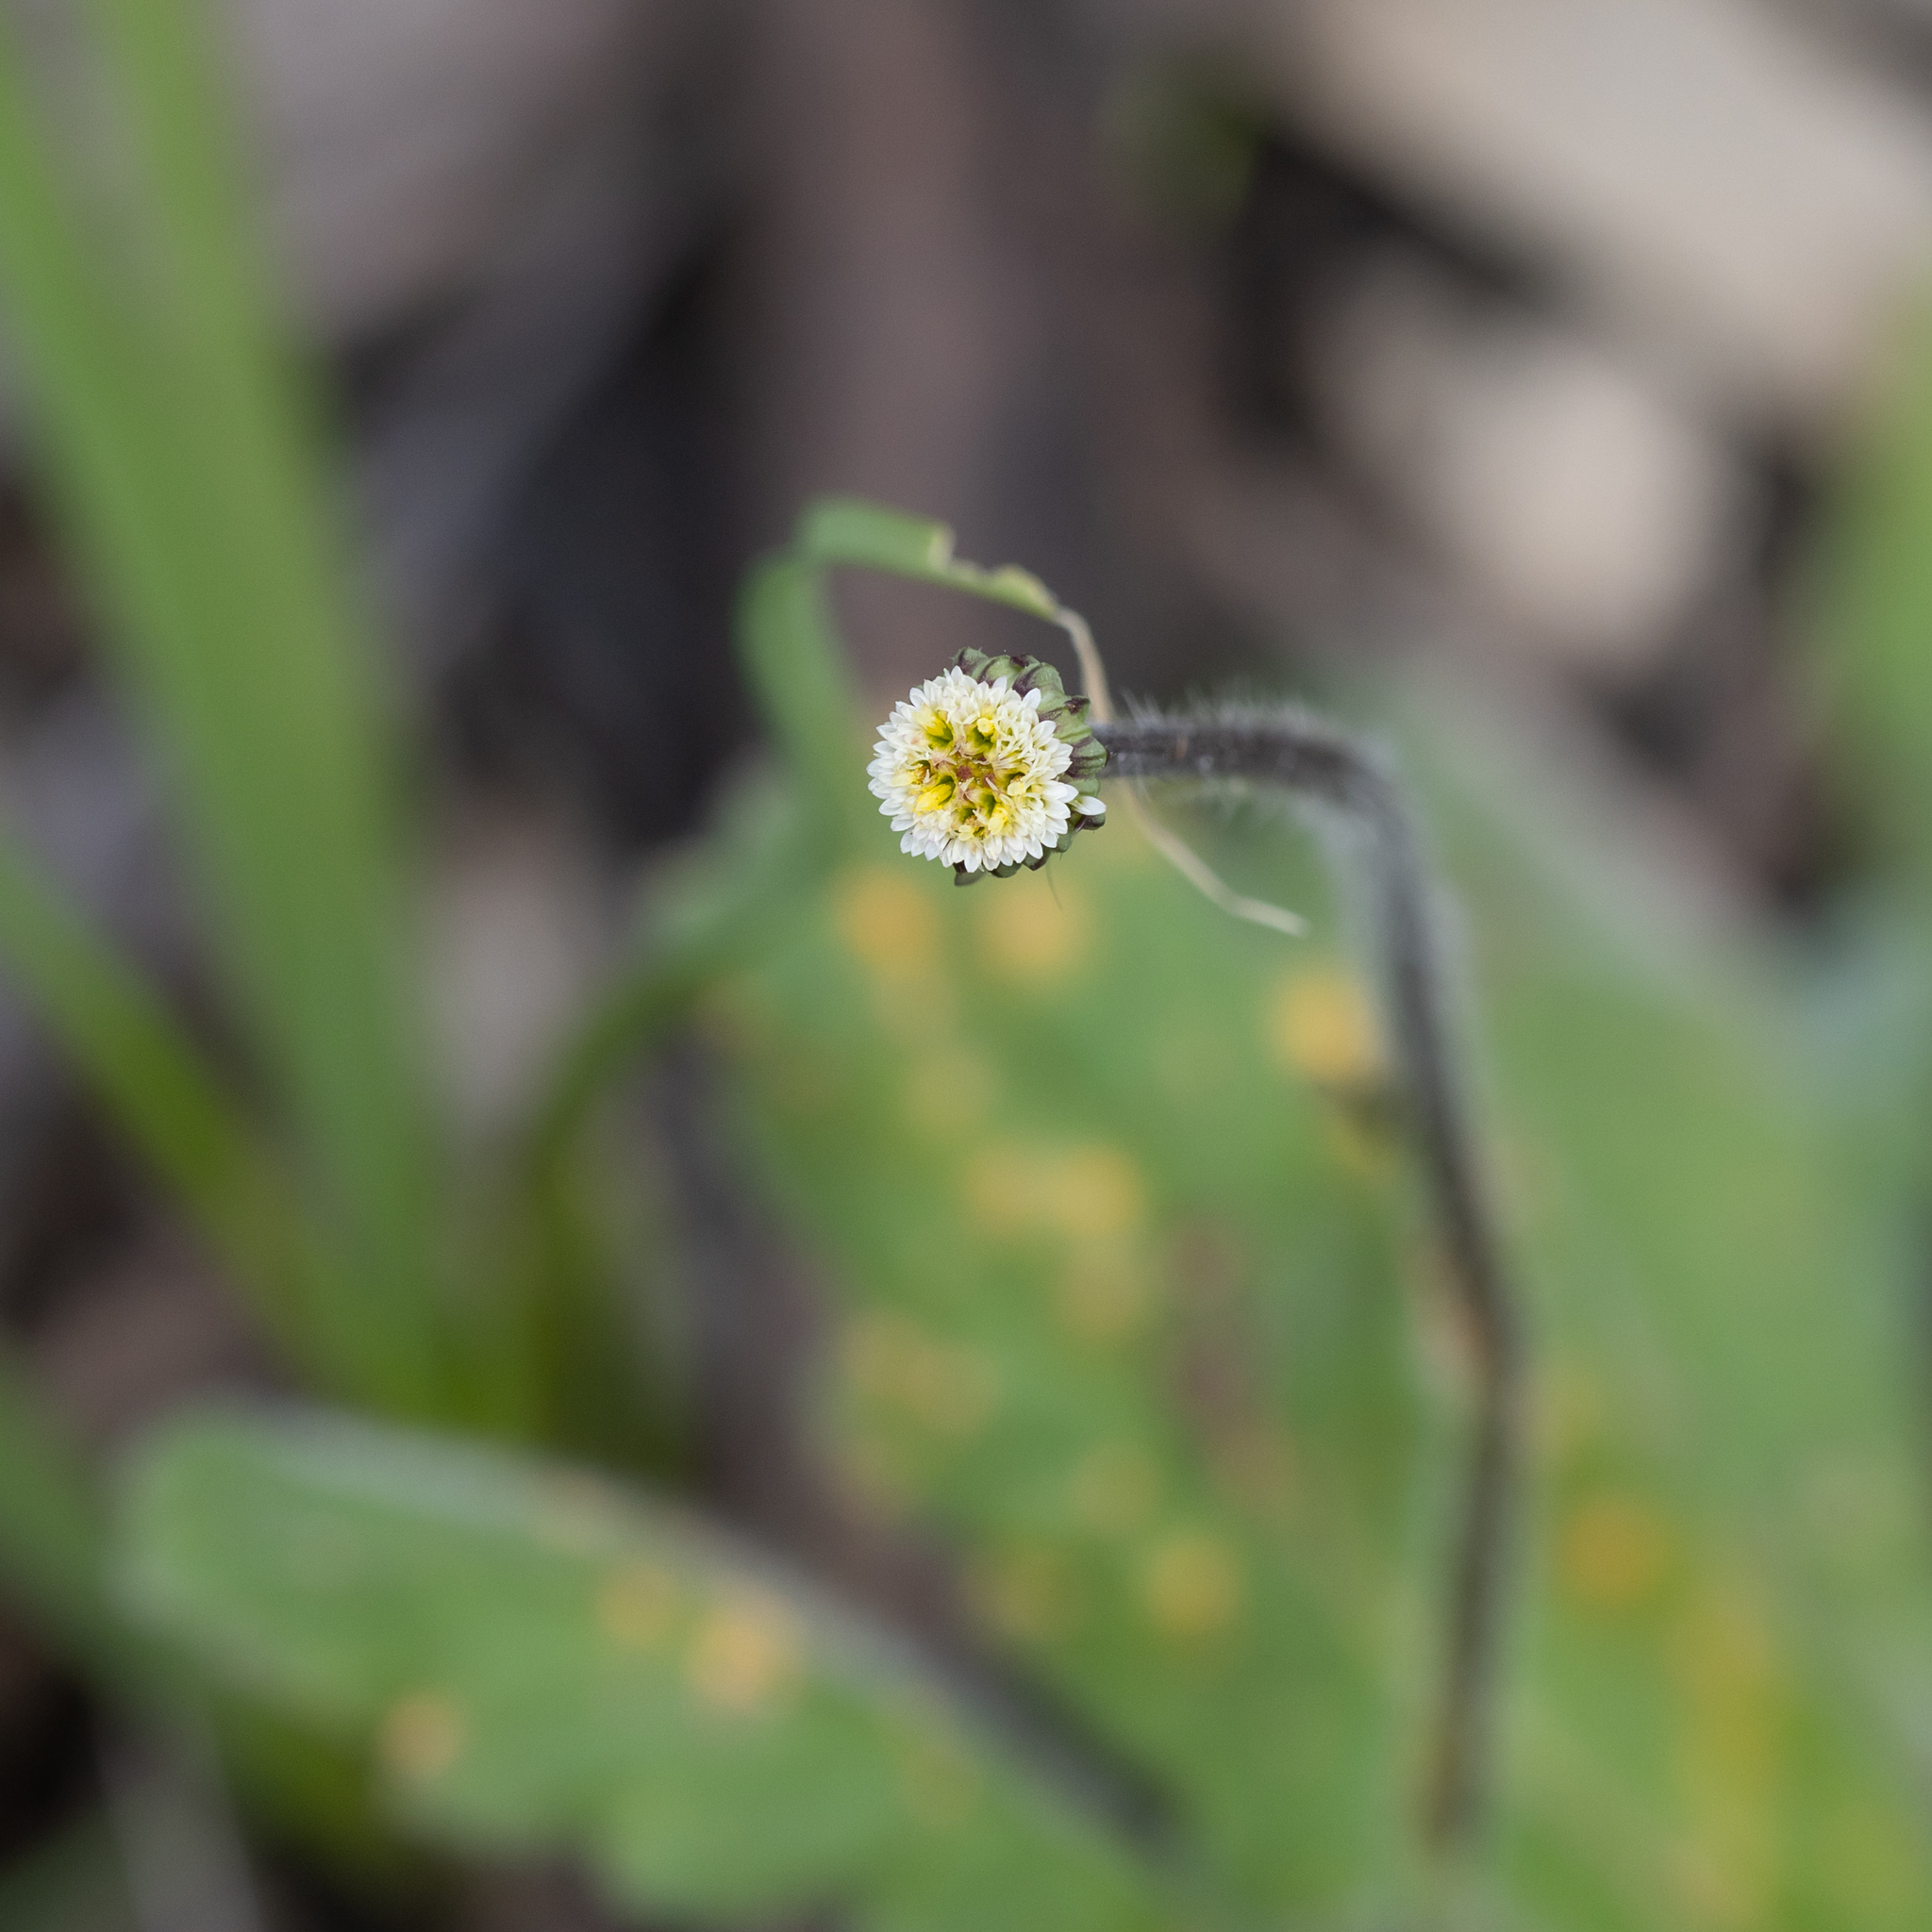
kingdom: Plantae
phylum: Tracheophyta
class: Magnoliopsida
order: Asterales
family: Asteraceae
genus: Lagenophora
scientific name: Lagenophora huegelii
